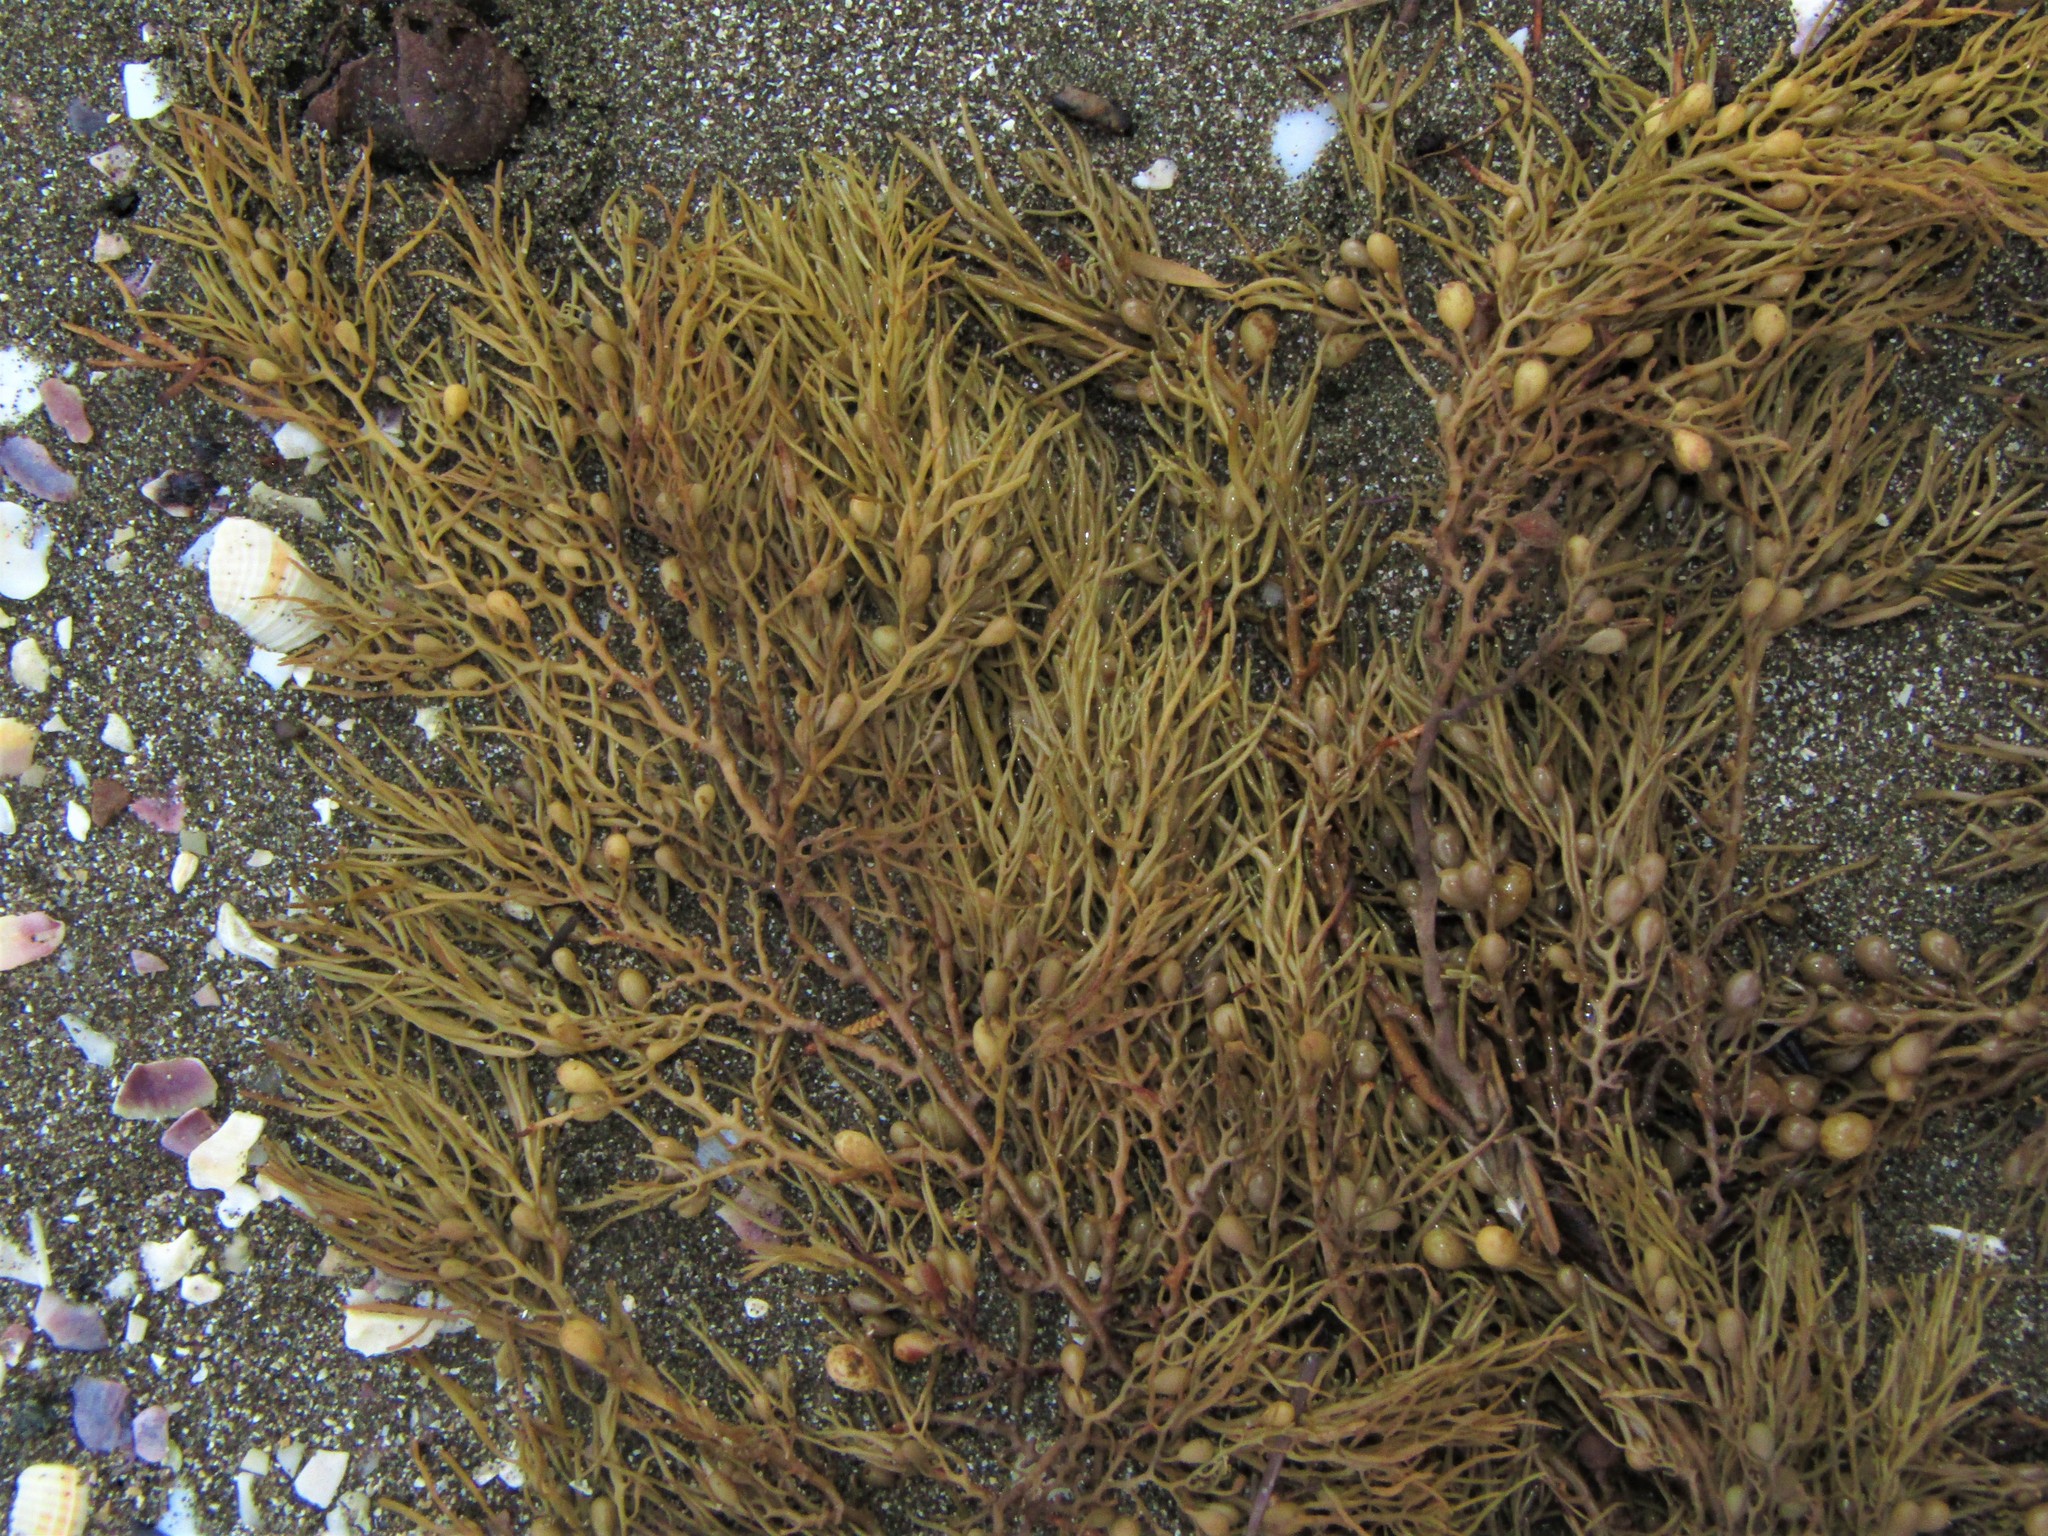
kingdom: Chromista
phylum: Ochrophyta
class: Phaeophyceae
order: Fucales
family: Sargassaceae
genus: Cystophora
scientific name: Cystophora retroflexa
